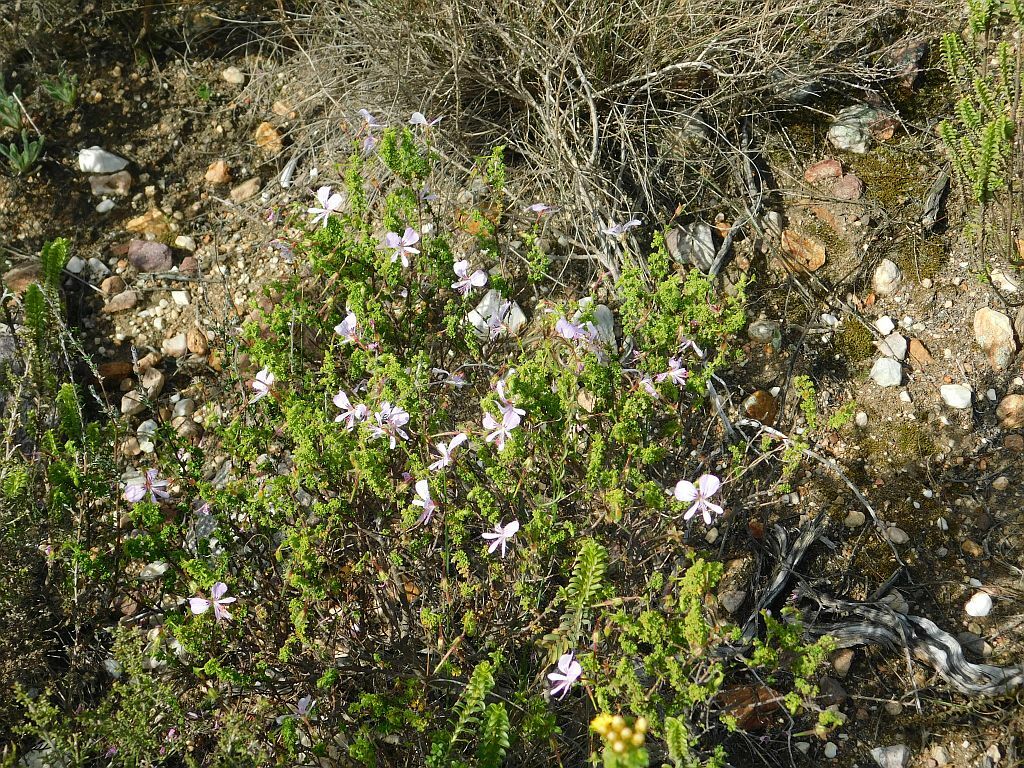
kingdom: Plantae
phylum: Tracheophyta
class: Magnoliopsida
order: Geraniales
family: Geraniaceae
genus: Pelargonium
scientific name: Pelargonium crispum
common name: Crisped-leaf pelargonium
